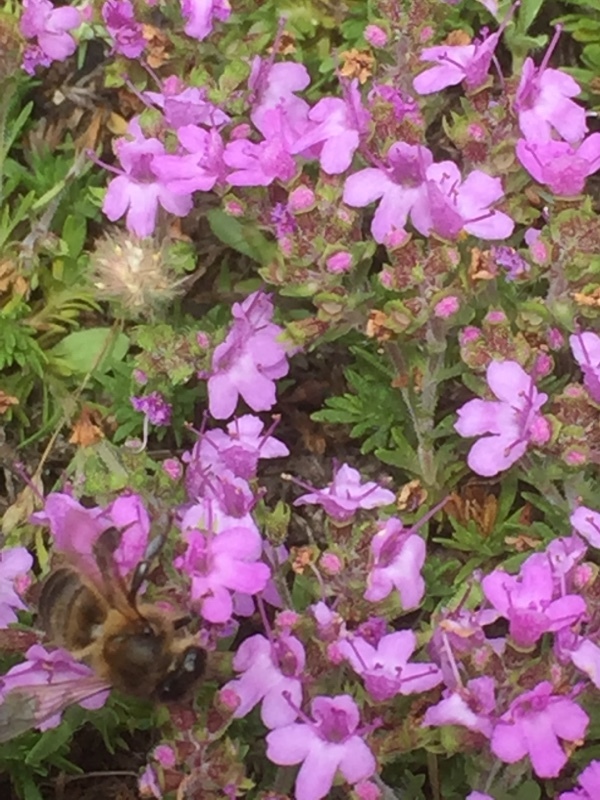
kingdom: Animalia
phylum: Arthropoda
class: Insecta
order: Hymenoptera
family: Apidae
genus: Apis
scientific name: Apis mellifera
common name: Honey bee
